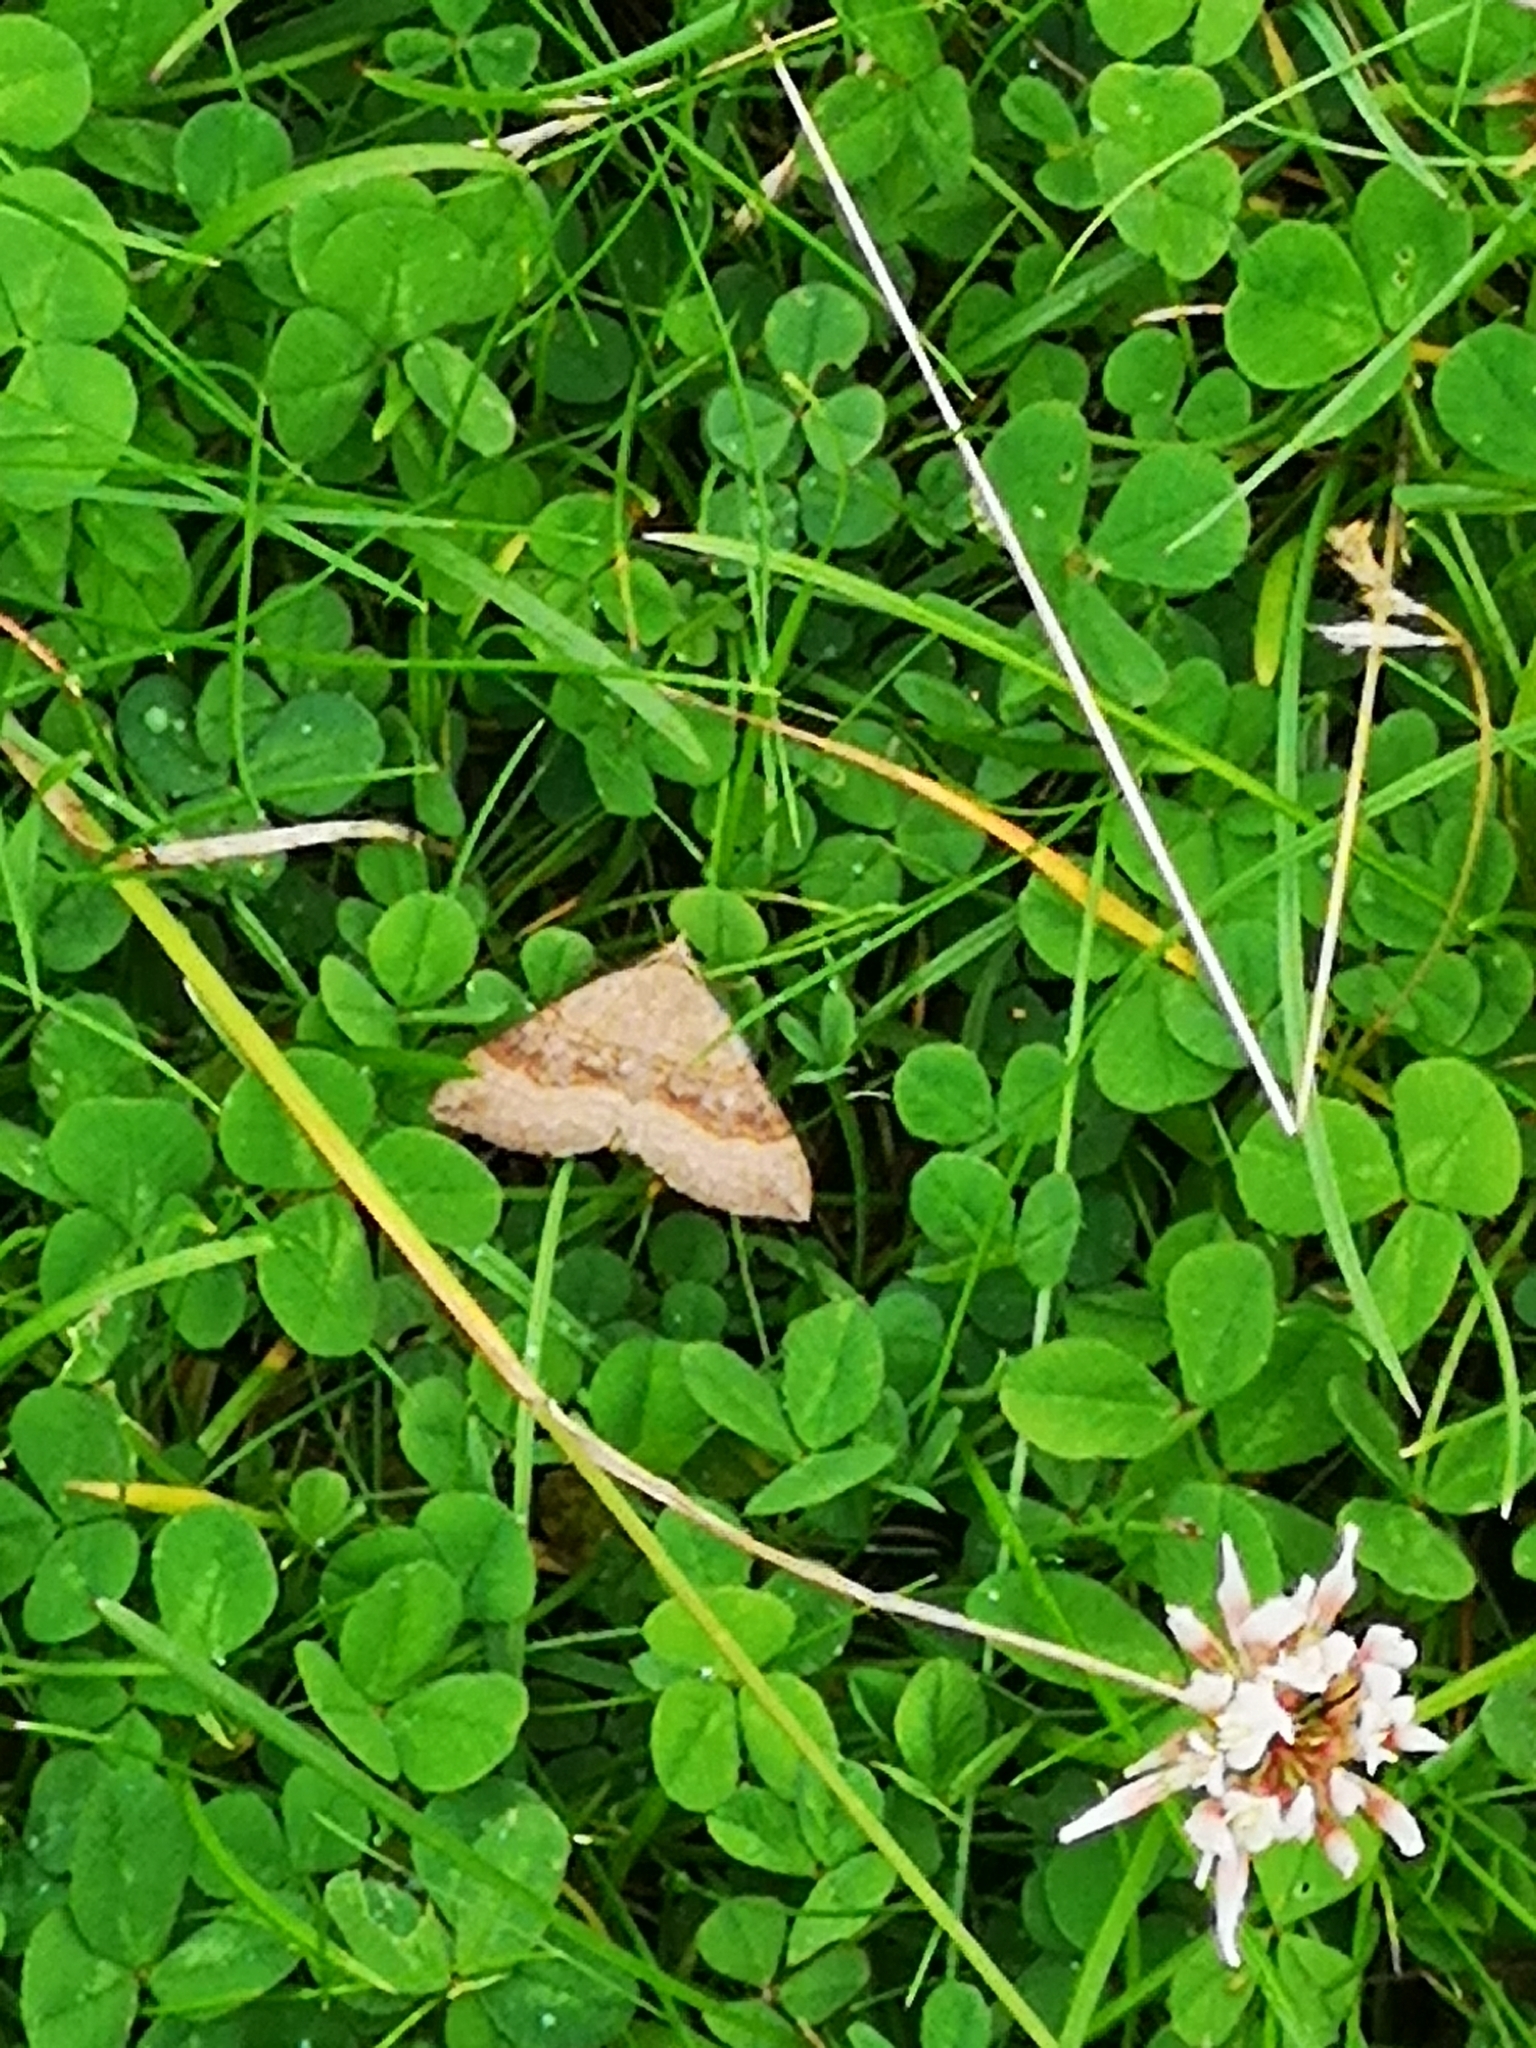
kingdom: Animalia
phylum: Arthropoda
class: Insecta
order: Lepidoptera
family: Geometridae
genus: Scotopteryx
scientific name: Scotopteryx chenopodiata
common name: Shaded broad-bar
